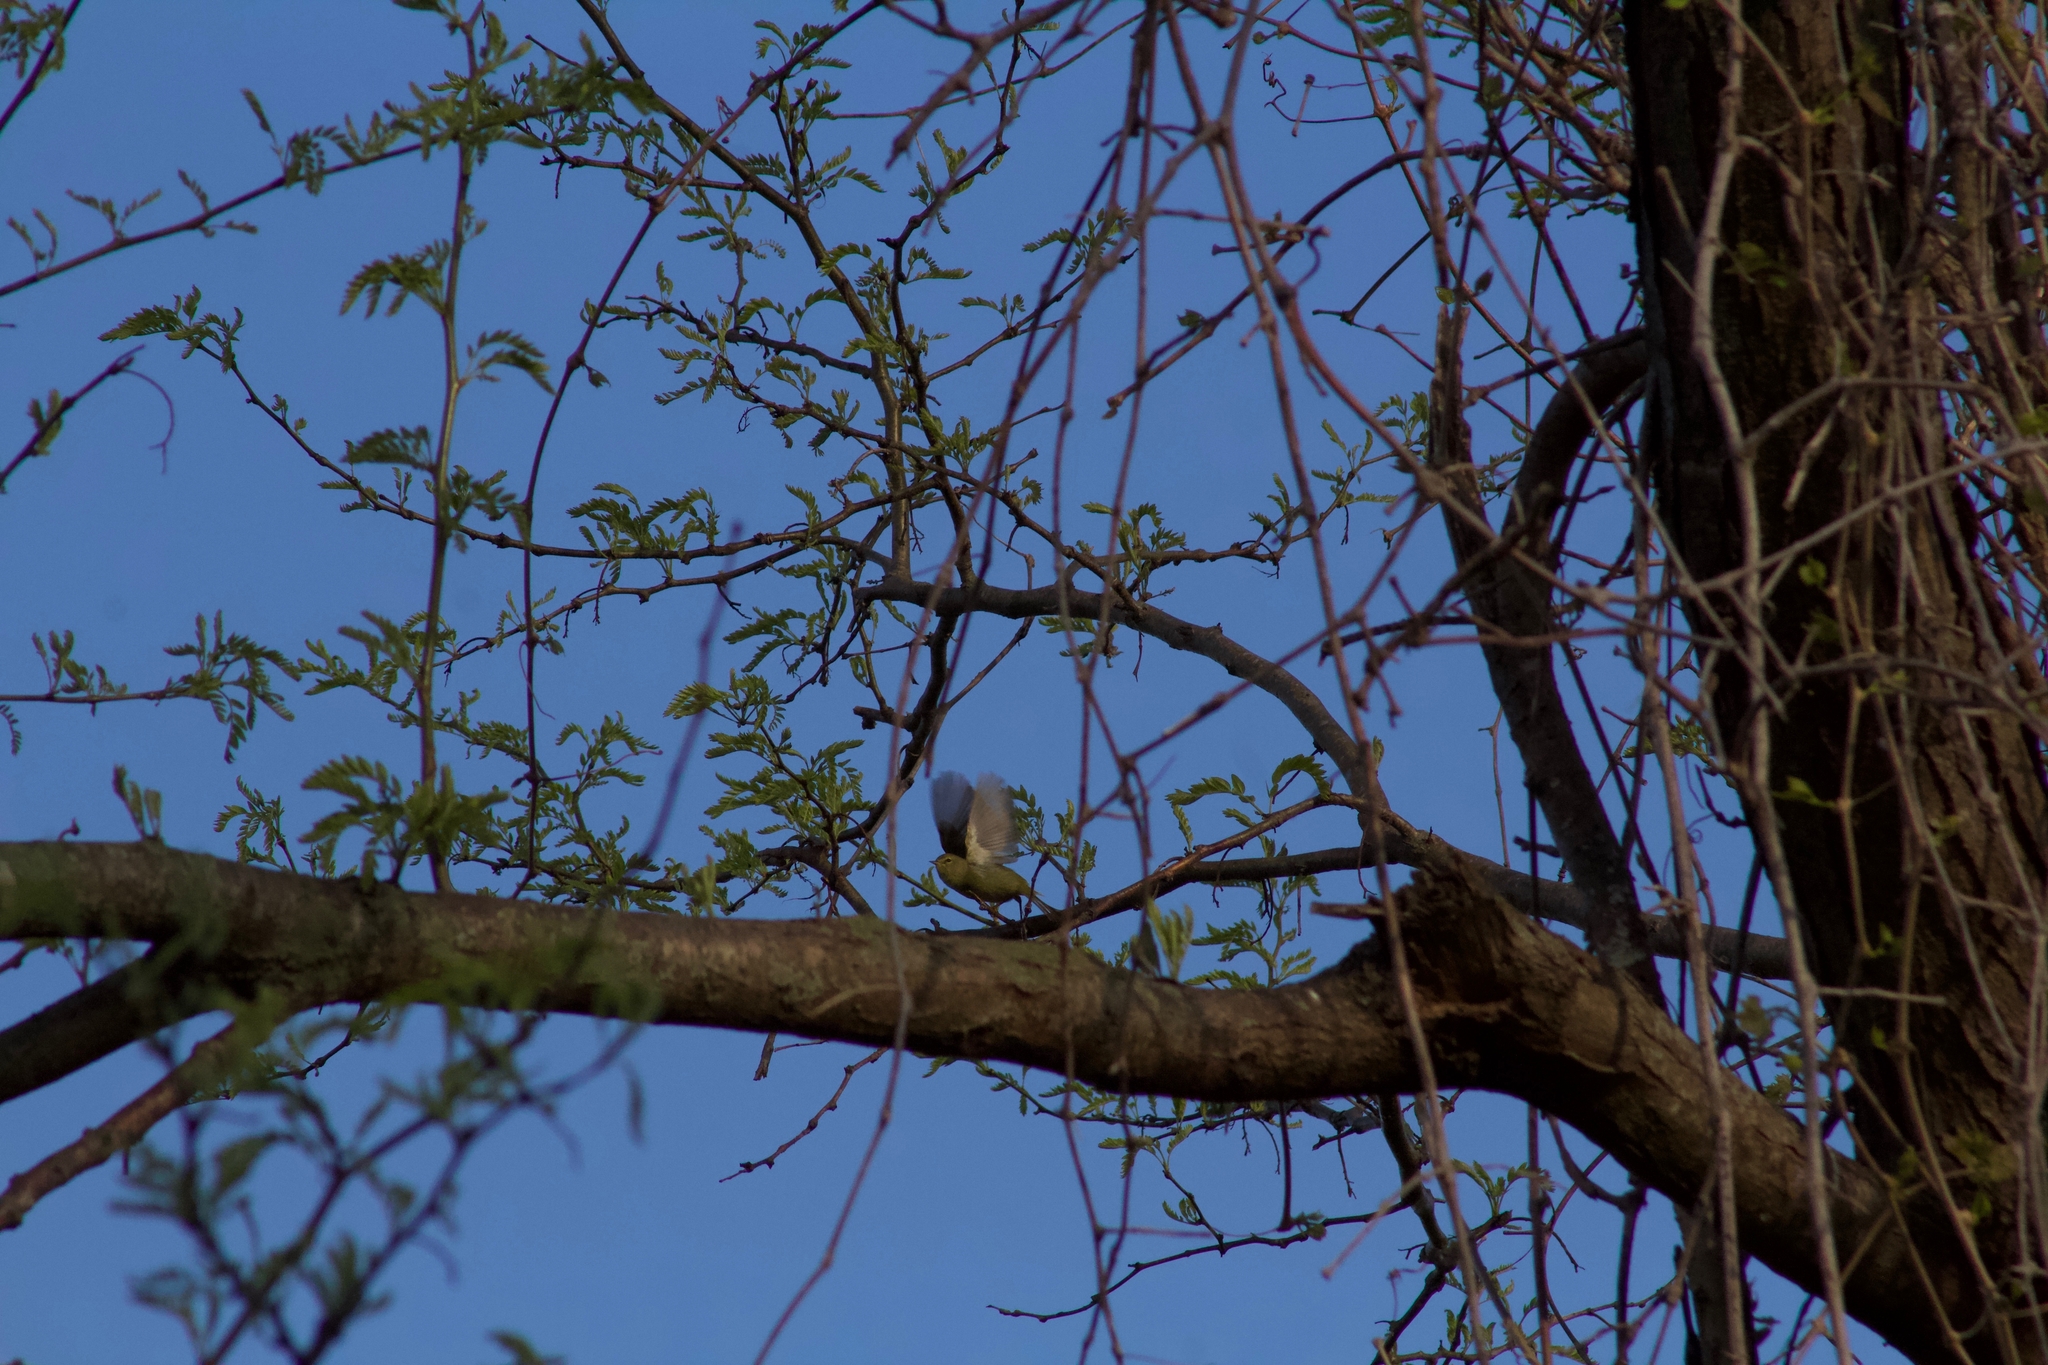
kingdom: Animalia
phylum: Chordata
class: Aves
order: Passeriformes
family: Parulidae
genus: Leiothlypis
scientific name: Leiothlypis celata
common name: Orange-crowned warbler
